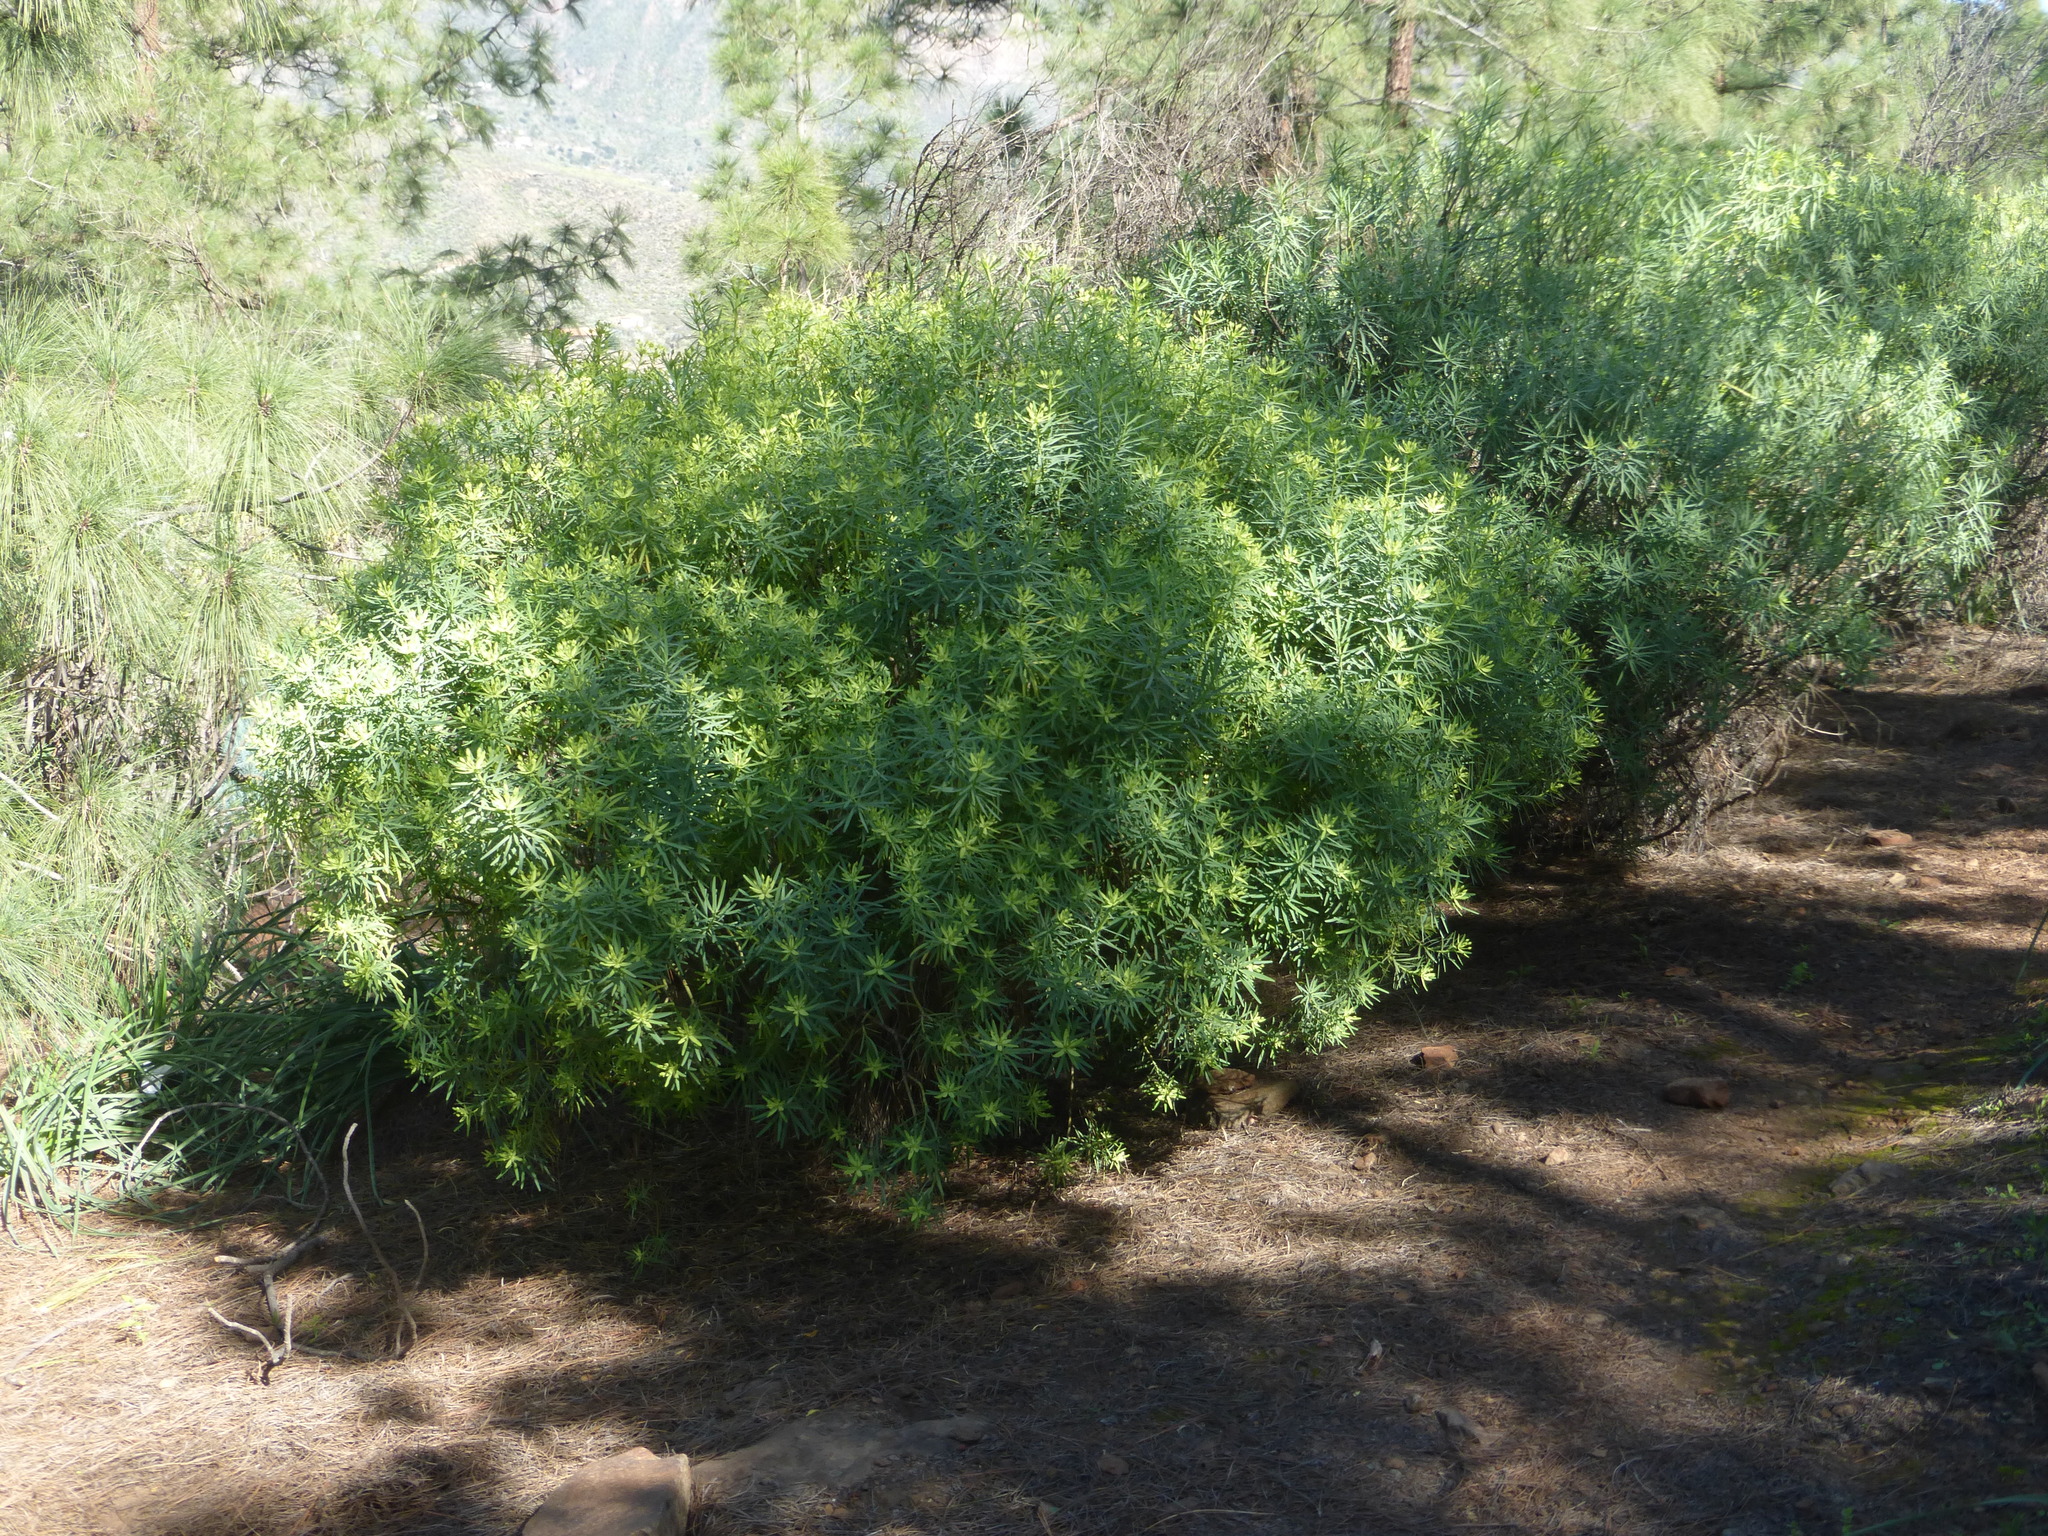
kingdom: Plantae
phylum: Tracheophyta
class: Magnoliopsida
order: Malpighiales
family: Euphorbiaceae
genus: Euphorbia
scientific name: Euphorbia regis-jubae
